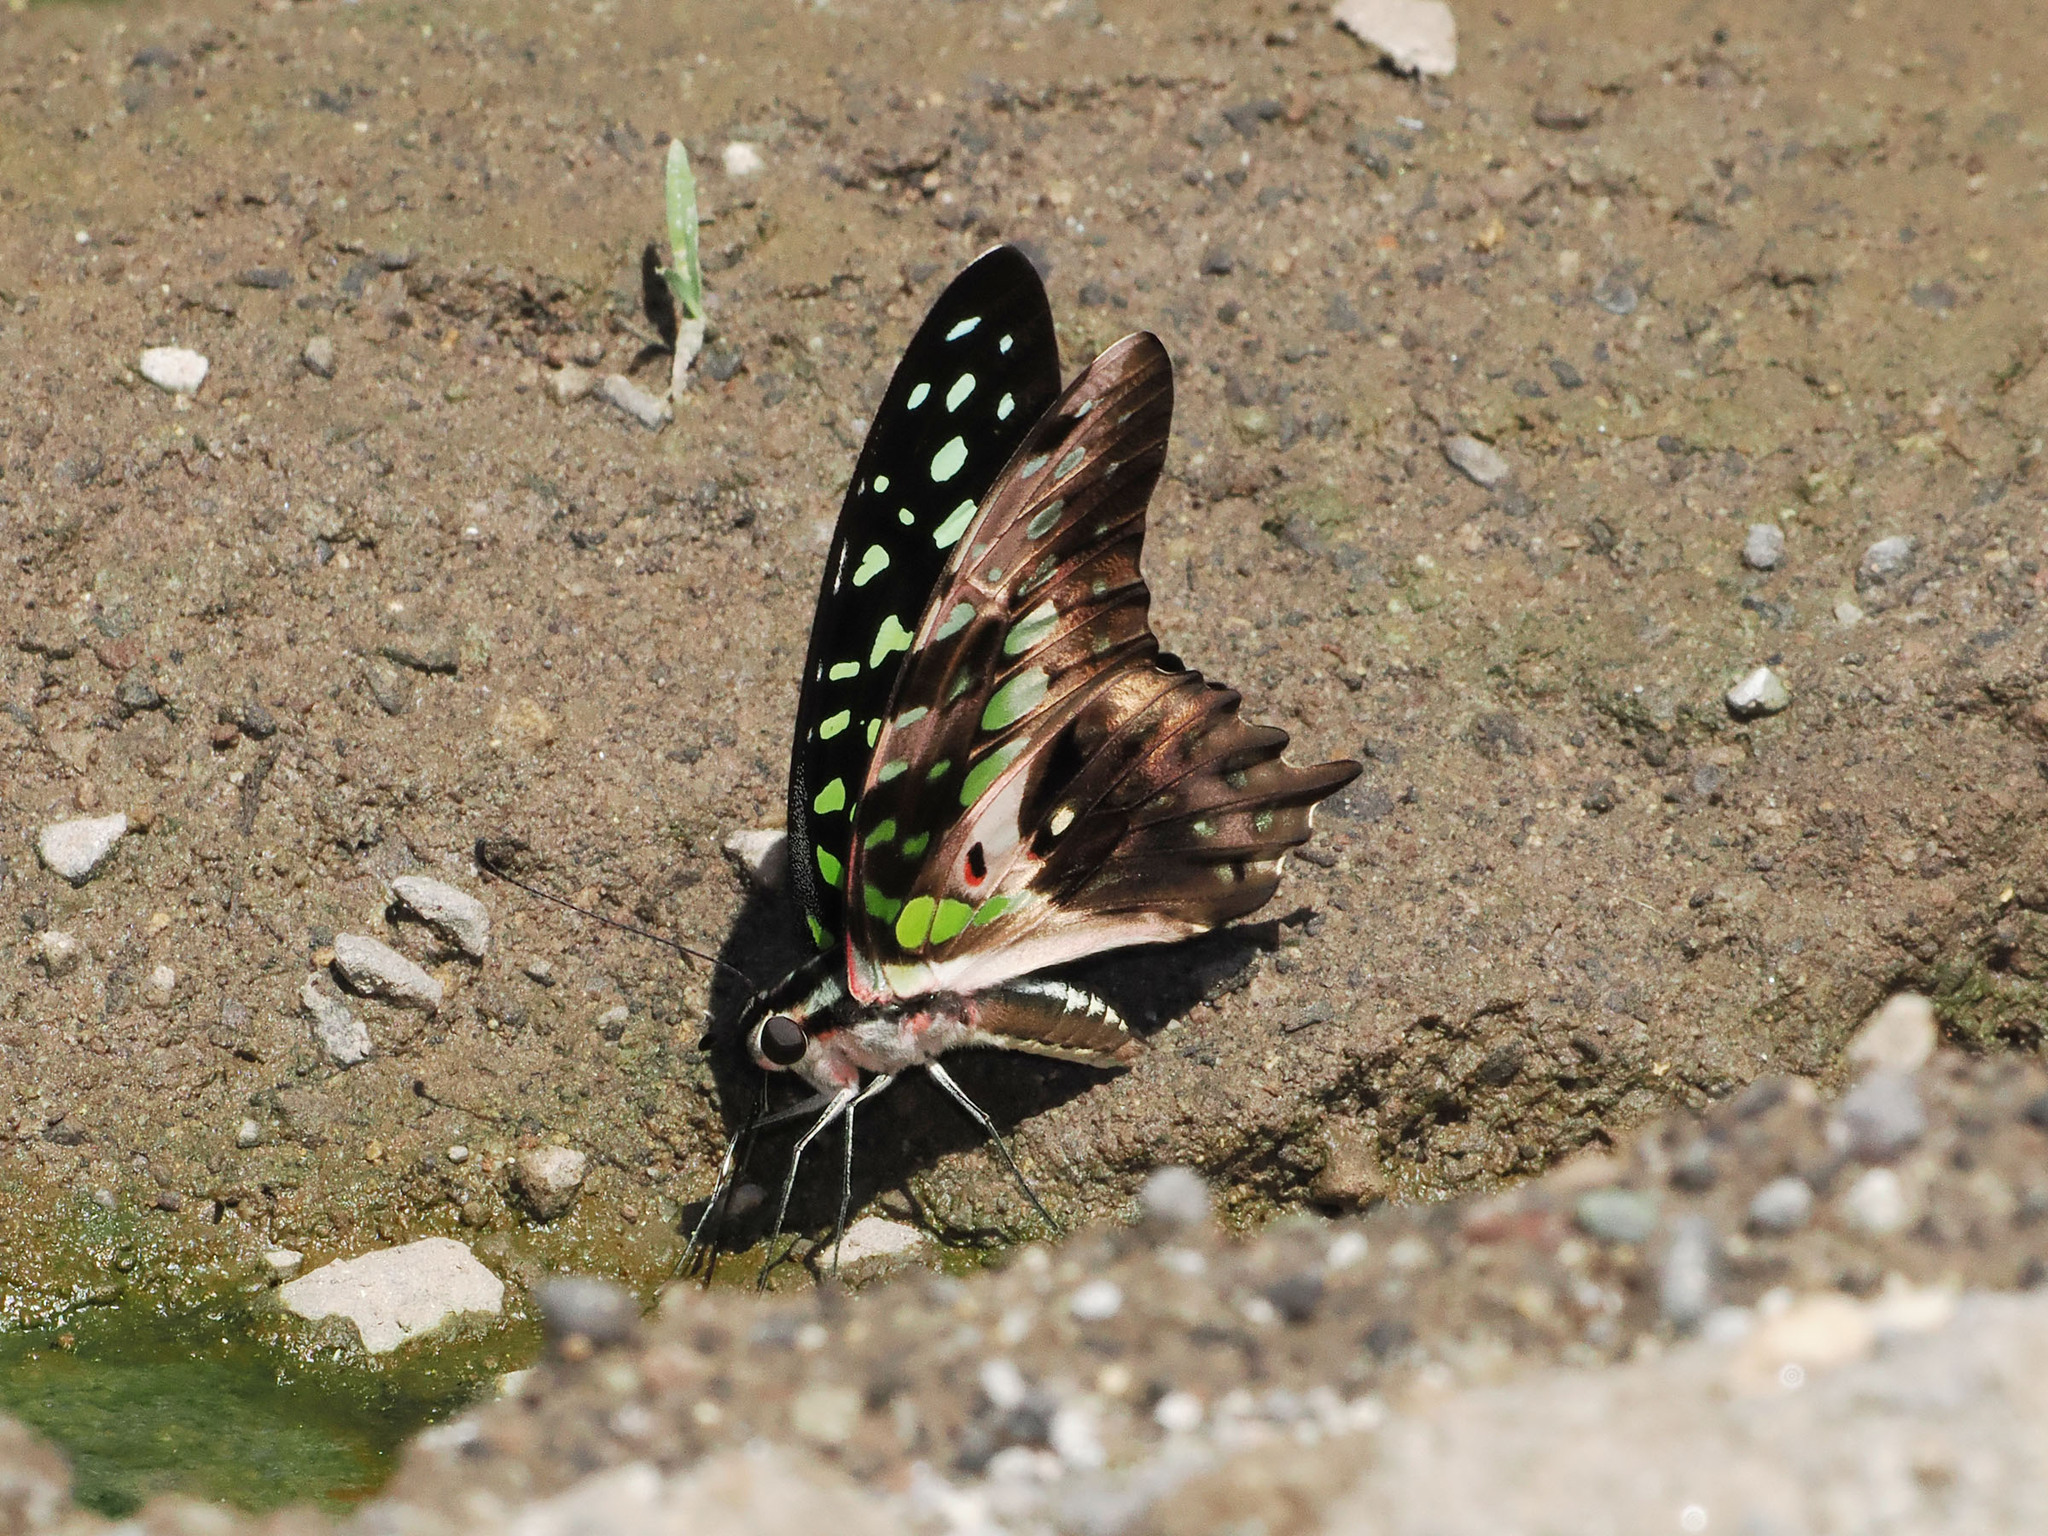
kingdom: Animalia
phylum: Arthropoda
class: Insecta
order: Lepidoptera
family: Papilionidae
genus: Graphium
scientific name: Graphium agamemnon
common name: Tailed jay
